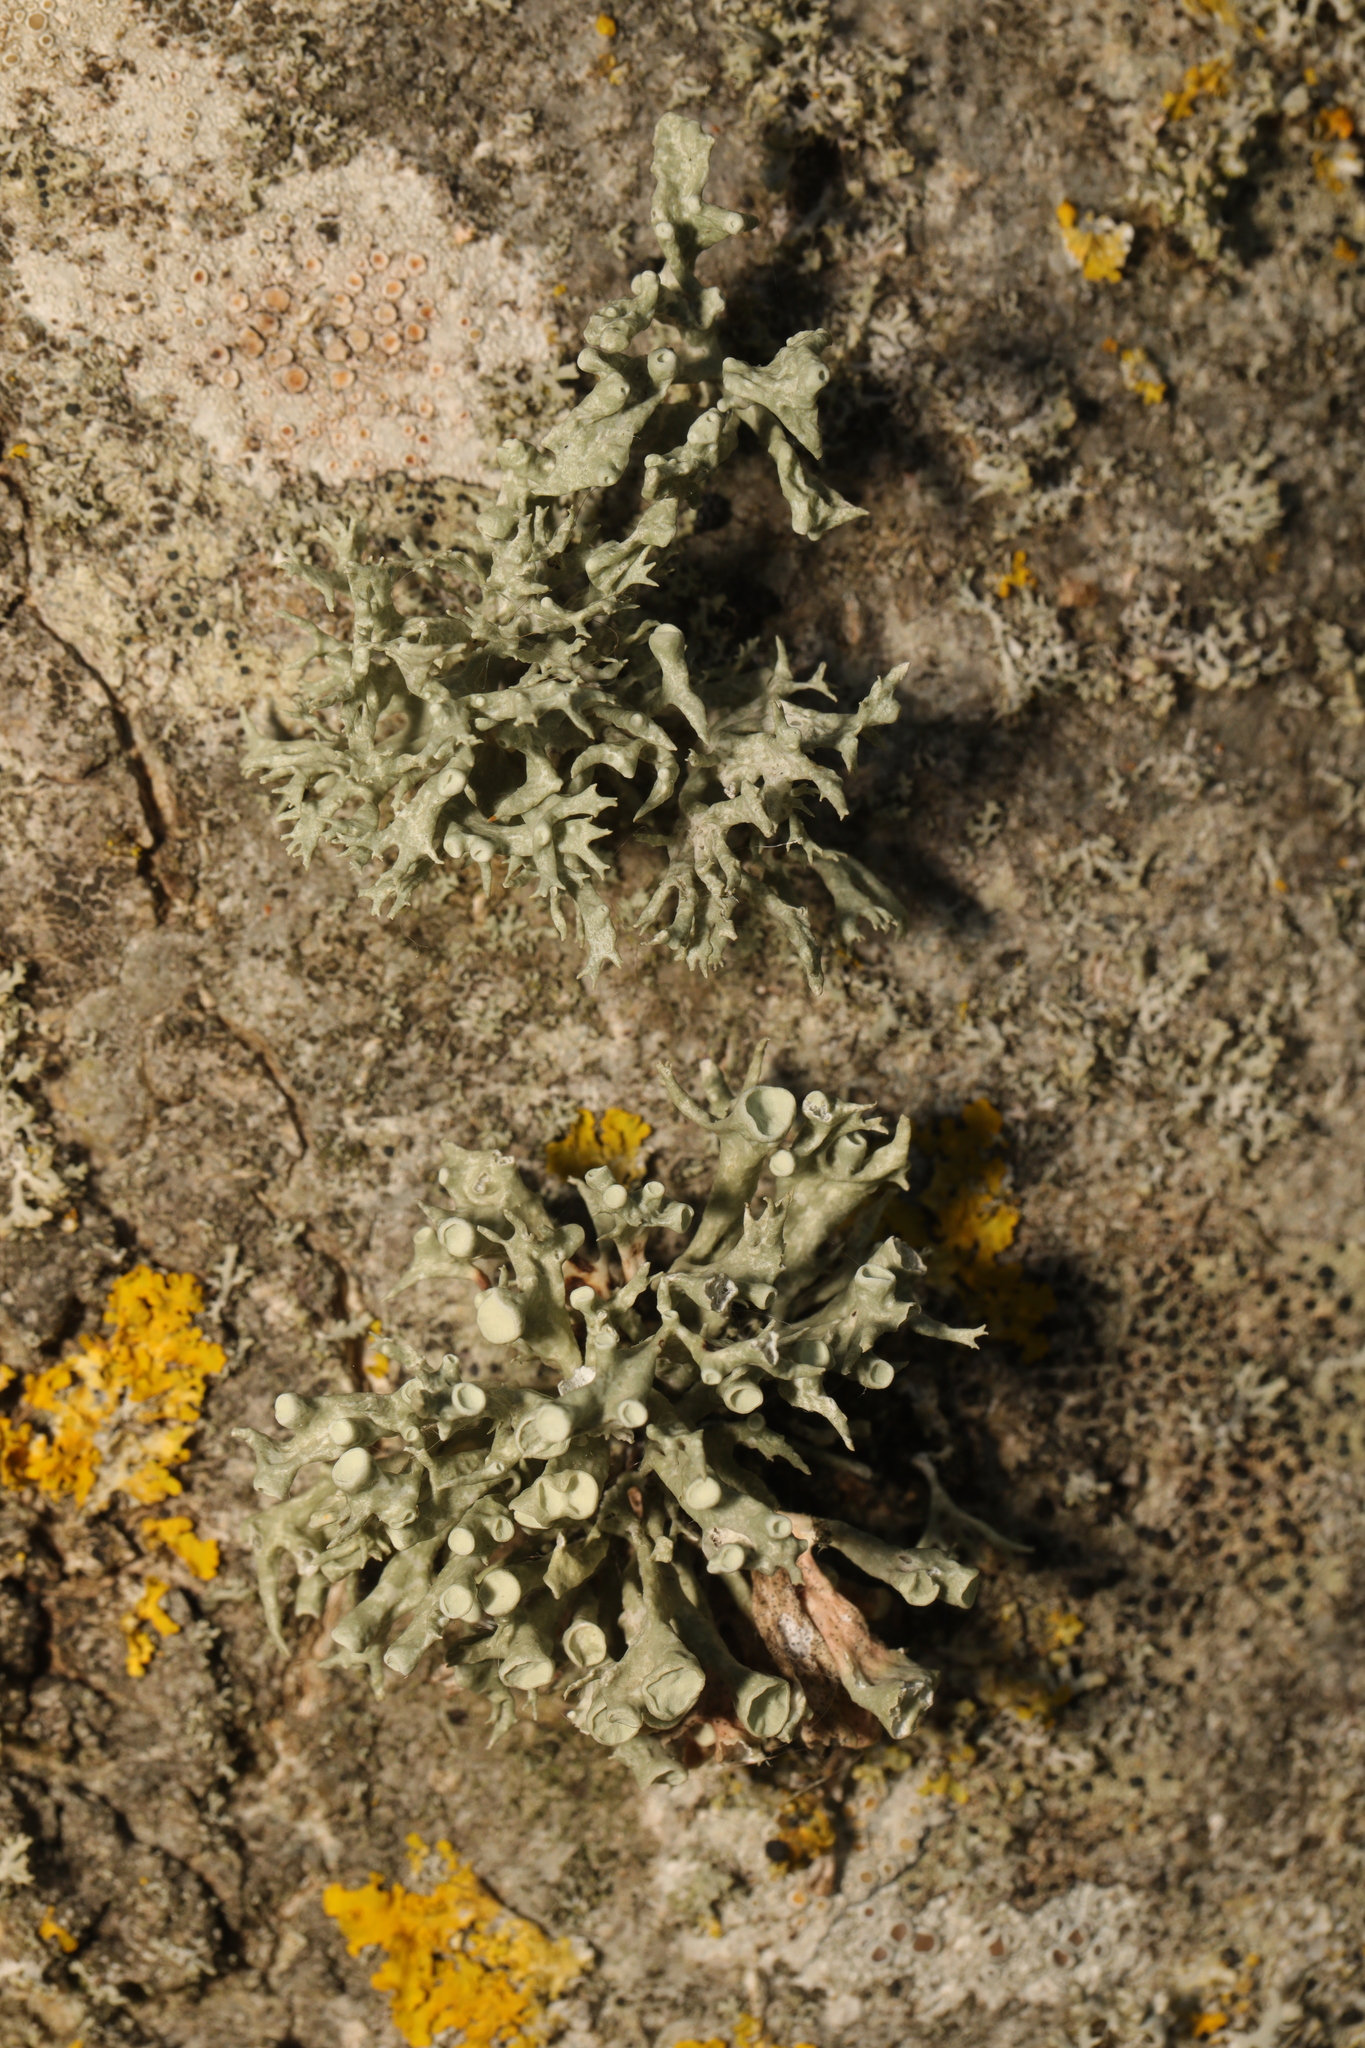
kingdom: Fungi
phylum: Ascomycota
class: Lecanoromycetes
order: Lecanorales
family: Ramalinaceae
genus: Ramalina
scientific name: Ramalina fastigiata
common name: Dotted ribbon lichen
